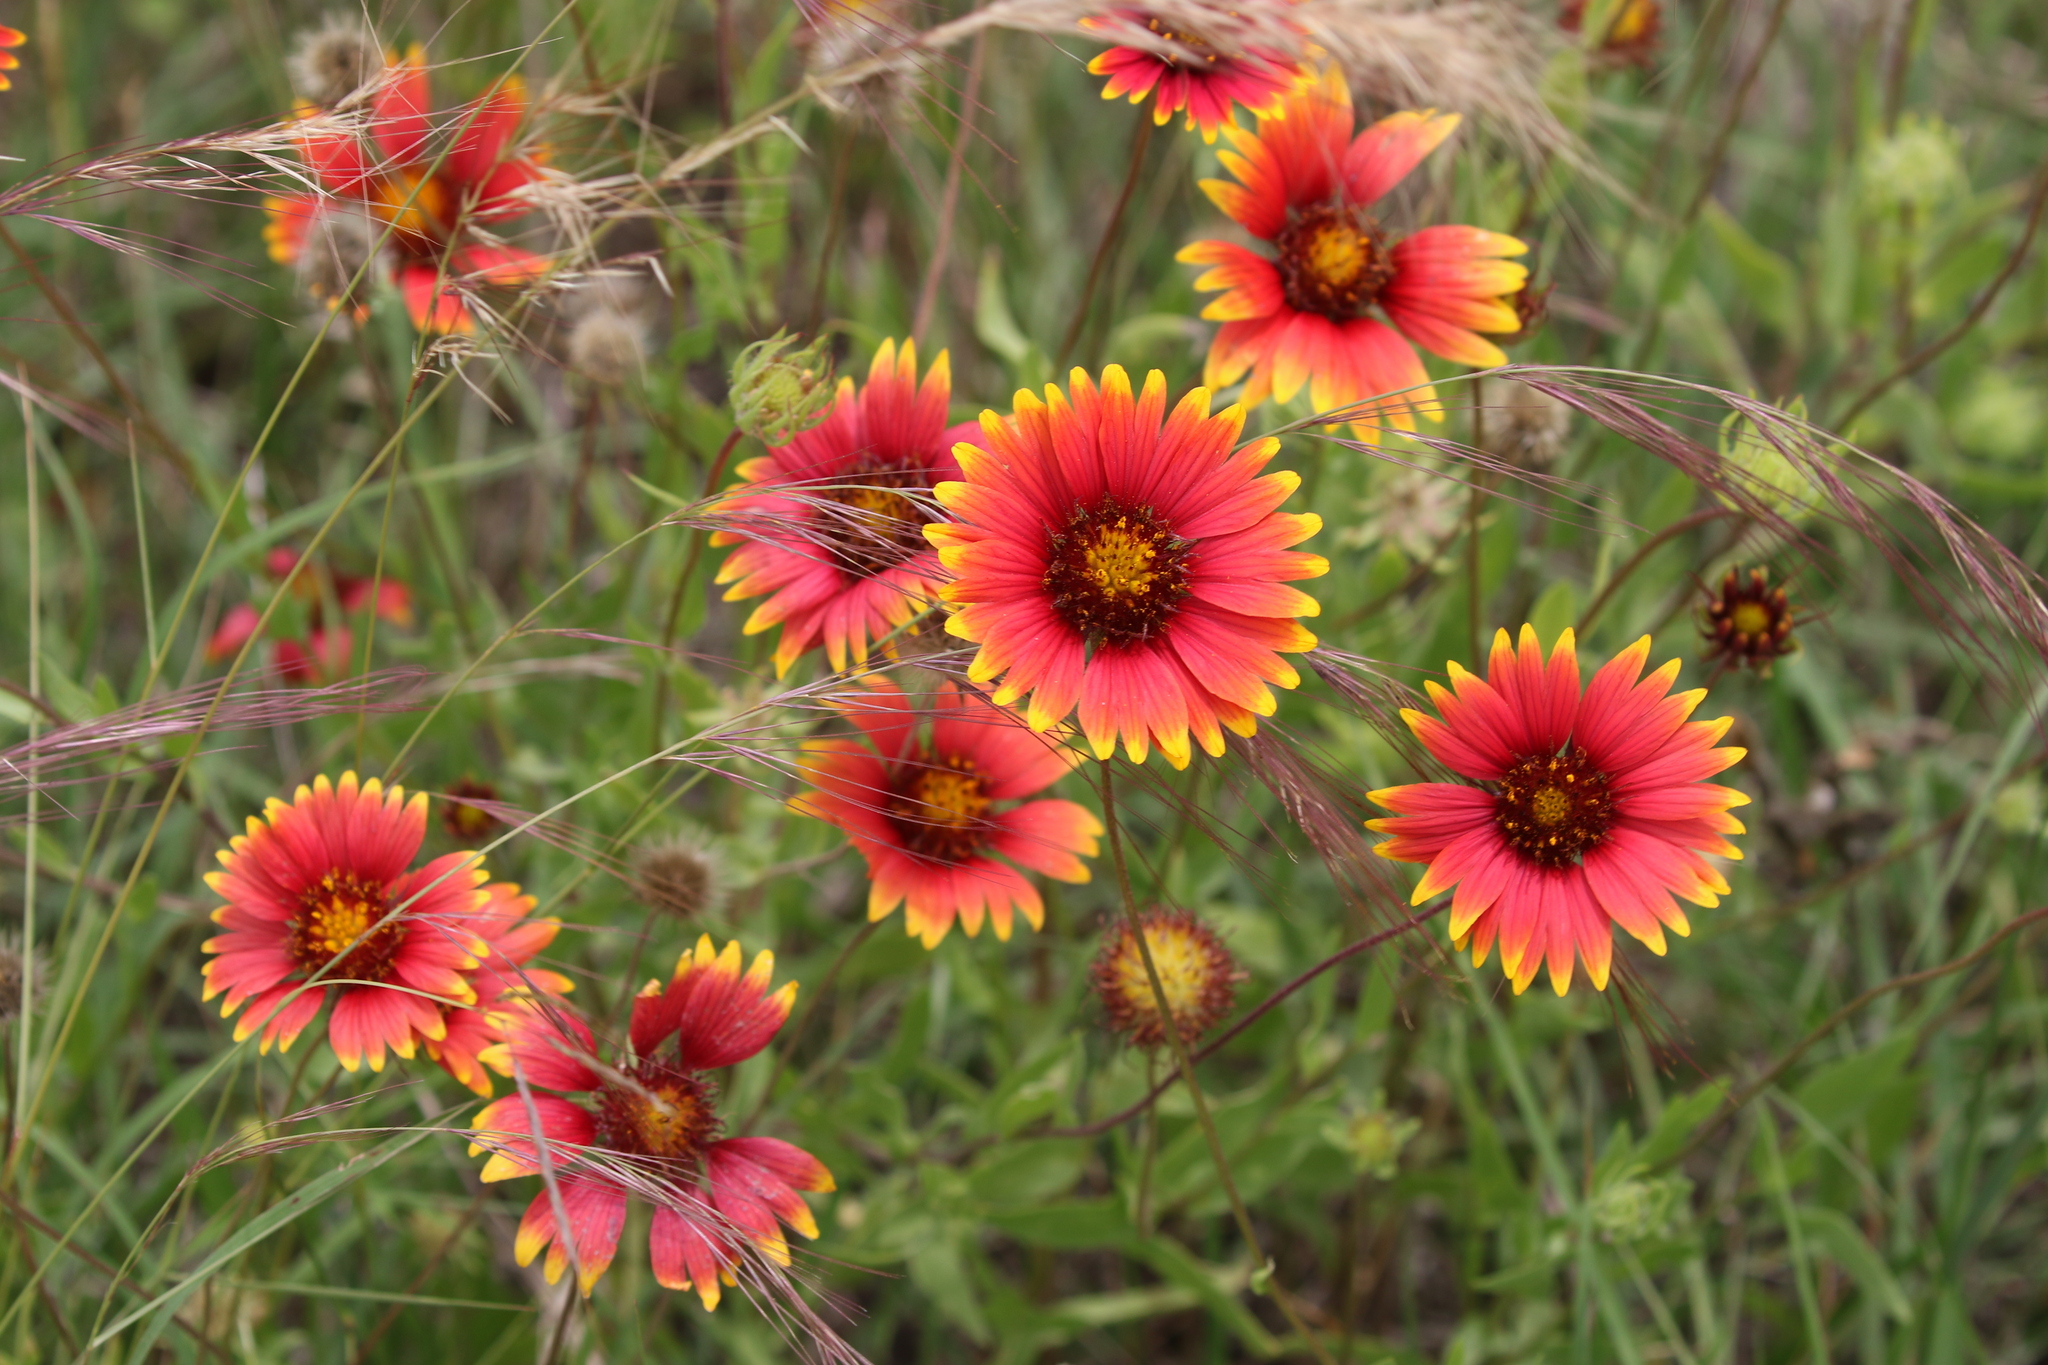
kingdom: Plantae
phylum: Tracheophyta
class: Magnoliopsida
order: Asterales
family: Asteraceae
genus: Gaillardia
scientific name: Gaillardia pulchella
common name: Firewheel
